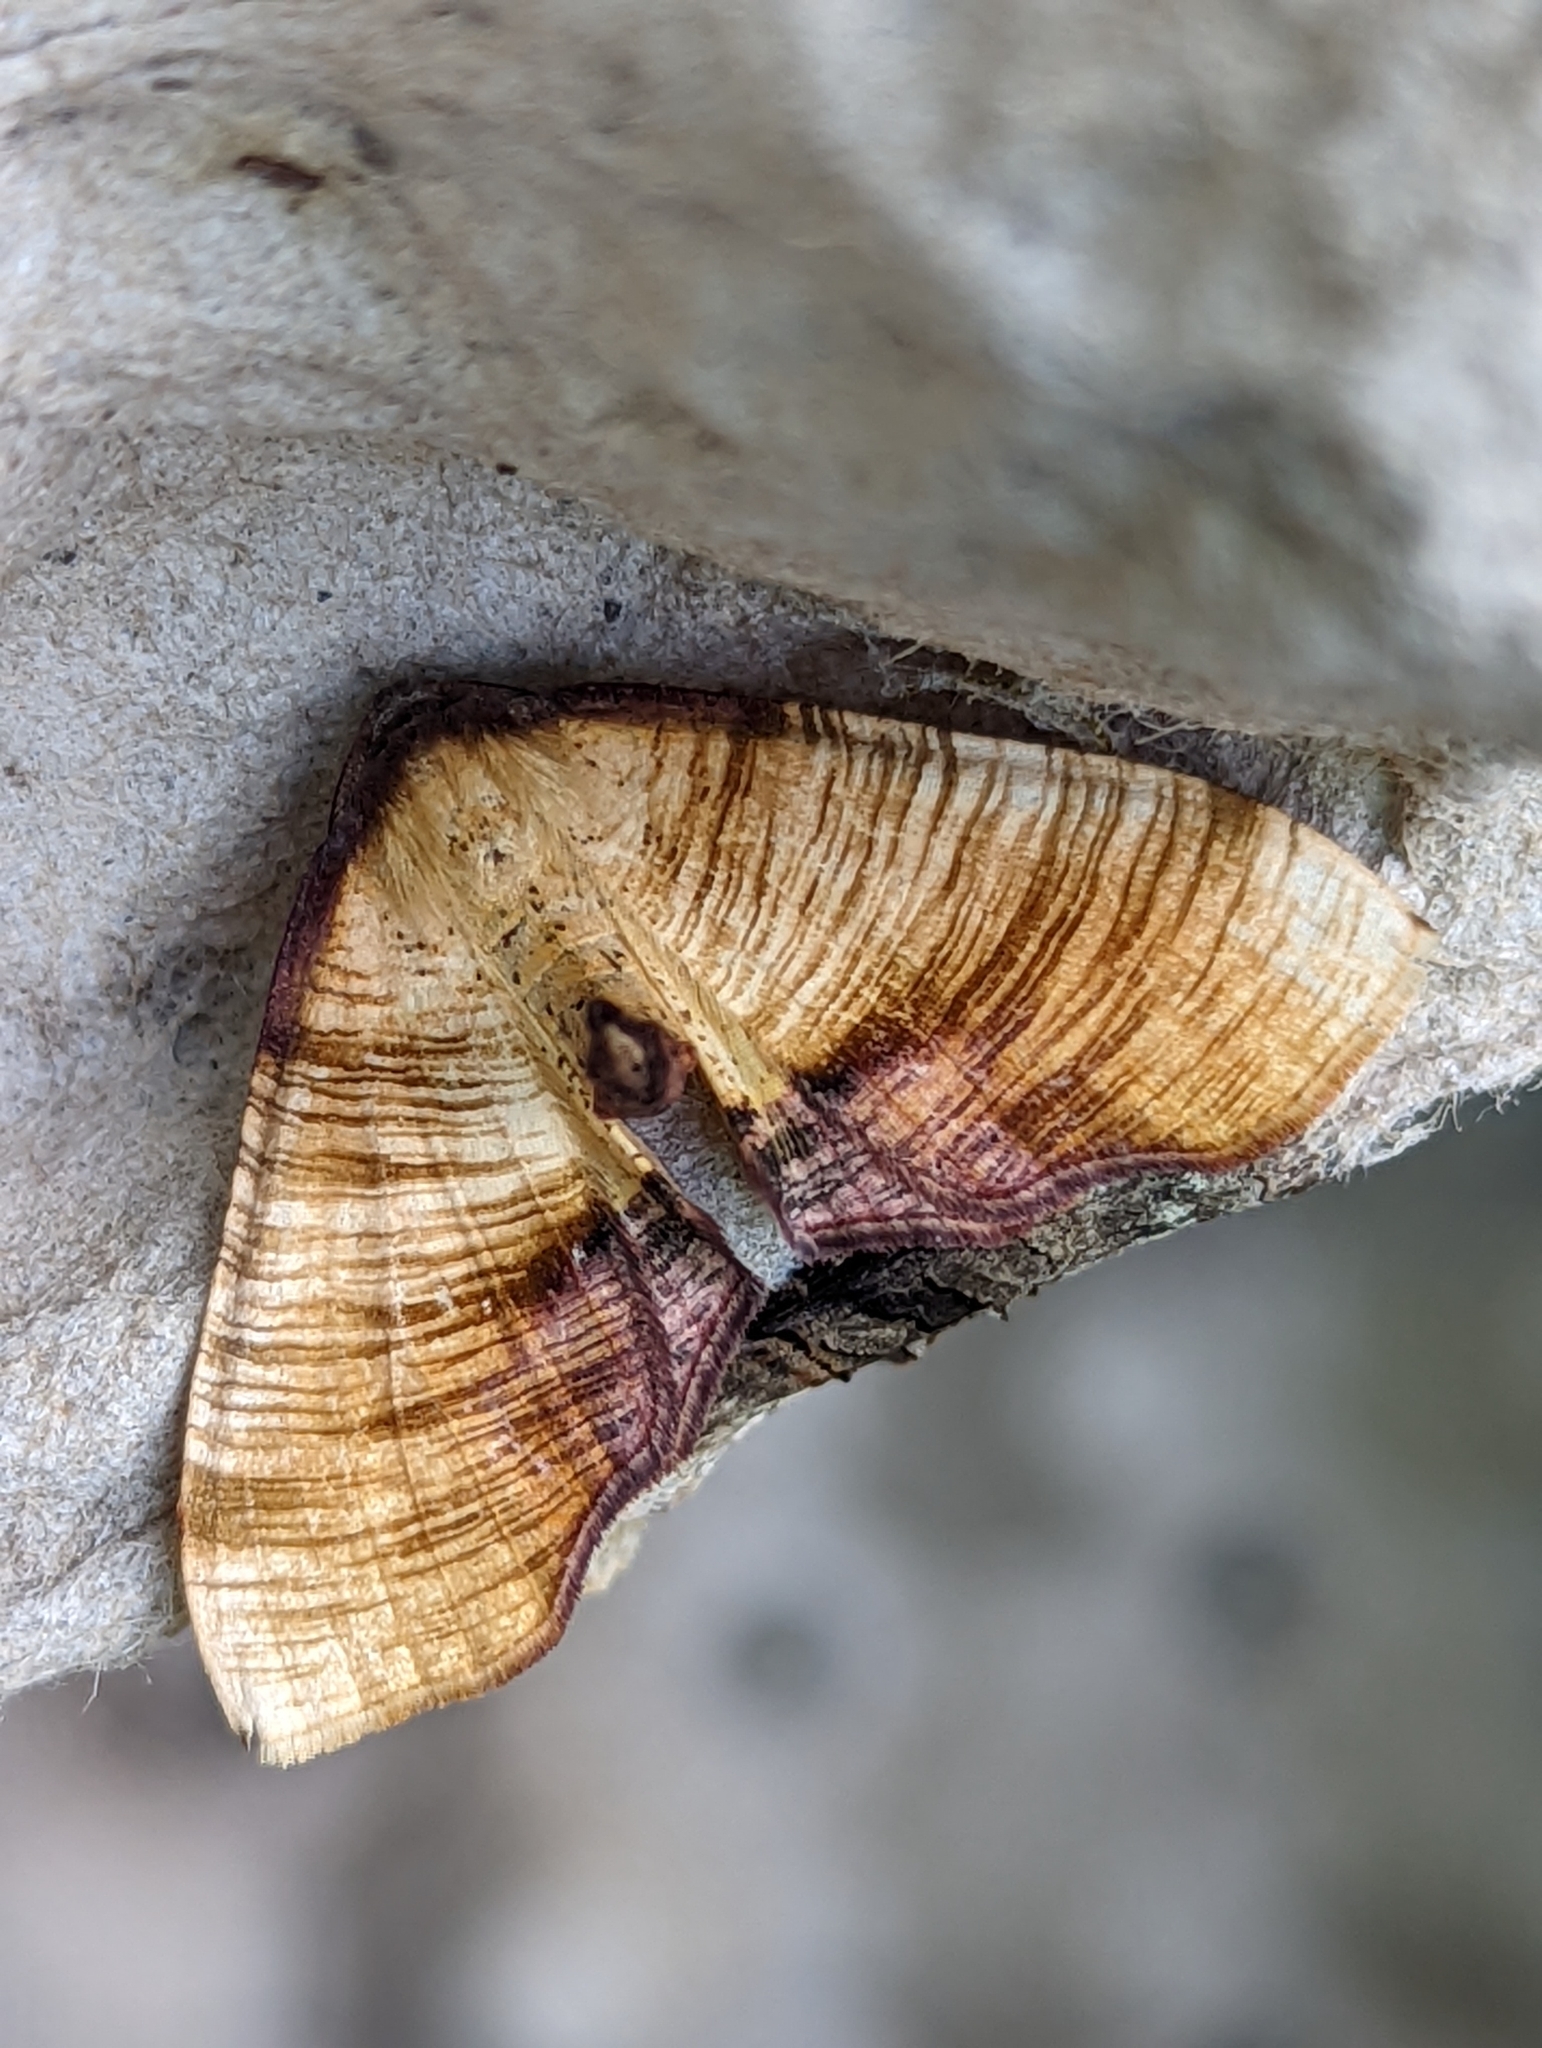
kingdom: Animalia
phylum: Arthropoda
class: Insecta
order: Lepidoptera
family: Geometridae
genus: Plagodis
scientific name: Plagodis dolabraria
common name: Scorched wing
